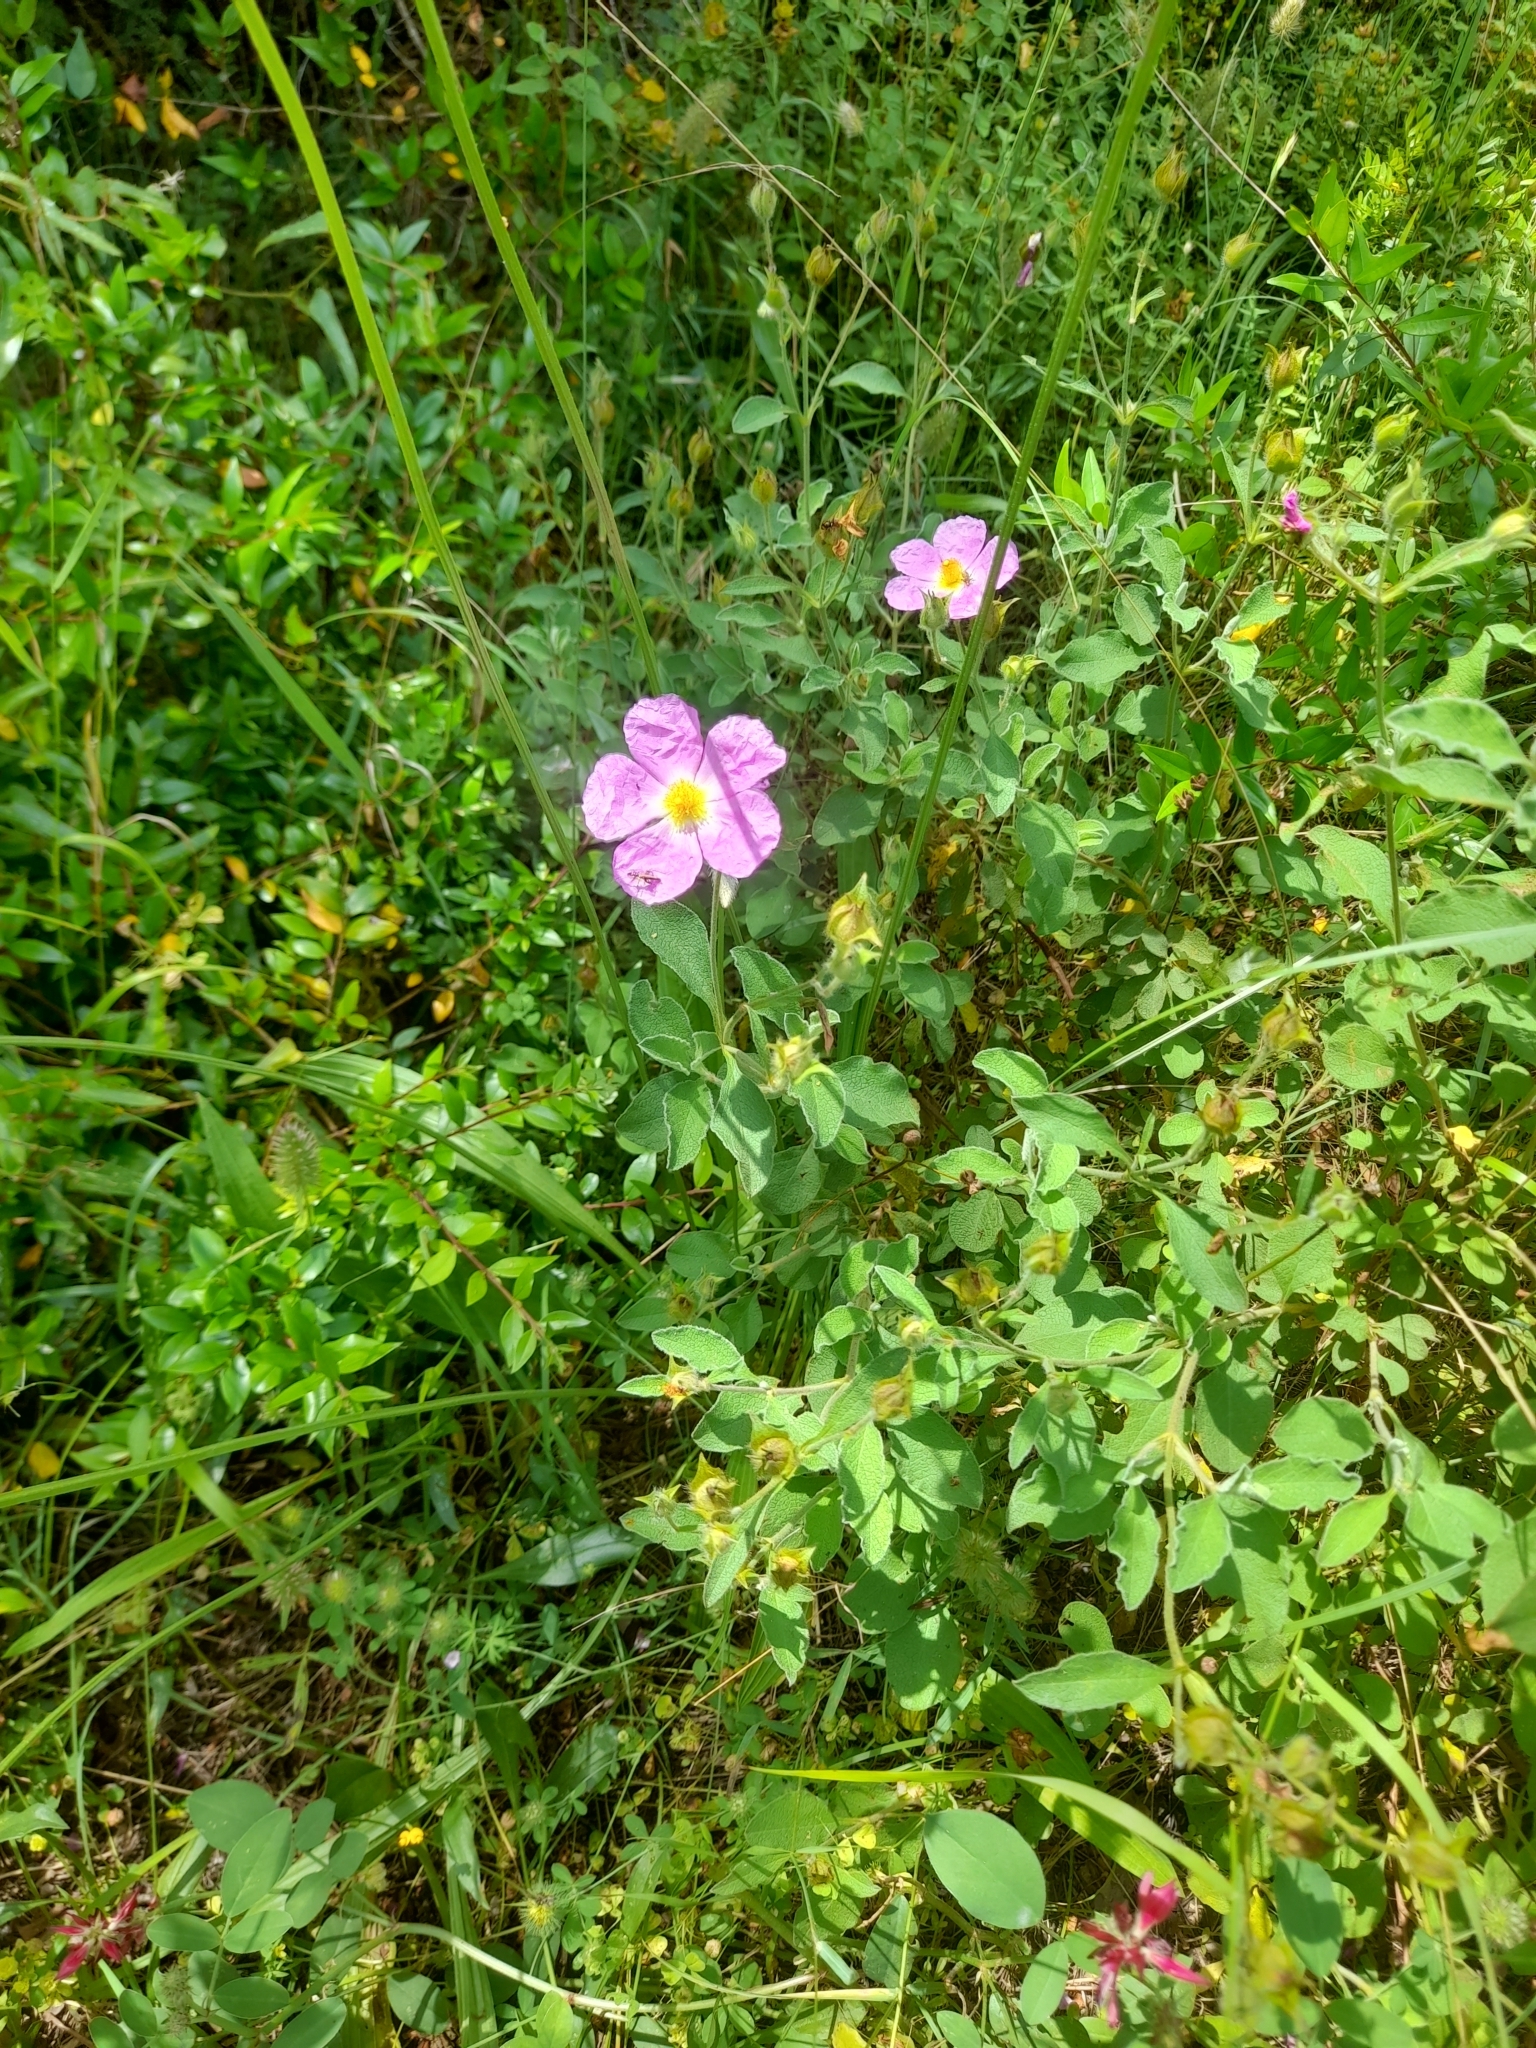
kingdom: Plantae
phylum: Tracheophyta
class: Magnoliopsida
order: Malvales
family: Cistaceae
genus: Cistus
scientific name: Cistus creticus
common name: Cretan rockrose
